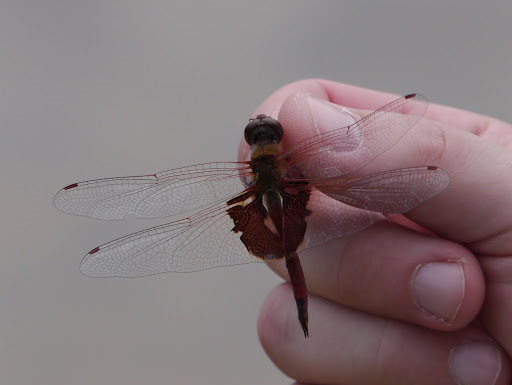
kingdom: Animalia
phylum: Arthropoda
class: Insecta
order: Odonata
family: Libellulidae
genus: Tramea
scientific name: Tramea onusta
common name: Red saddlebags
